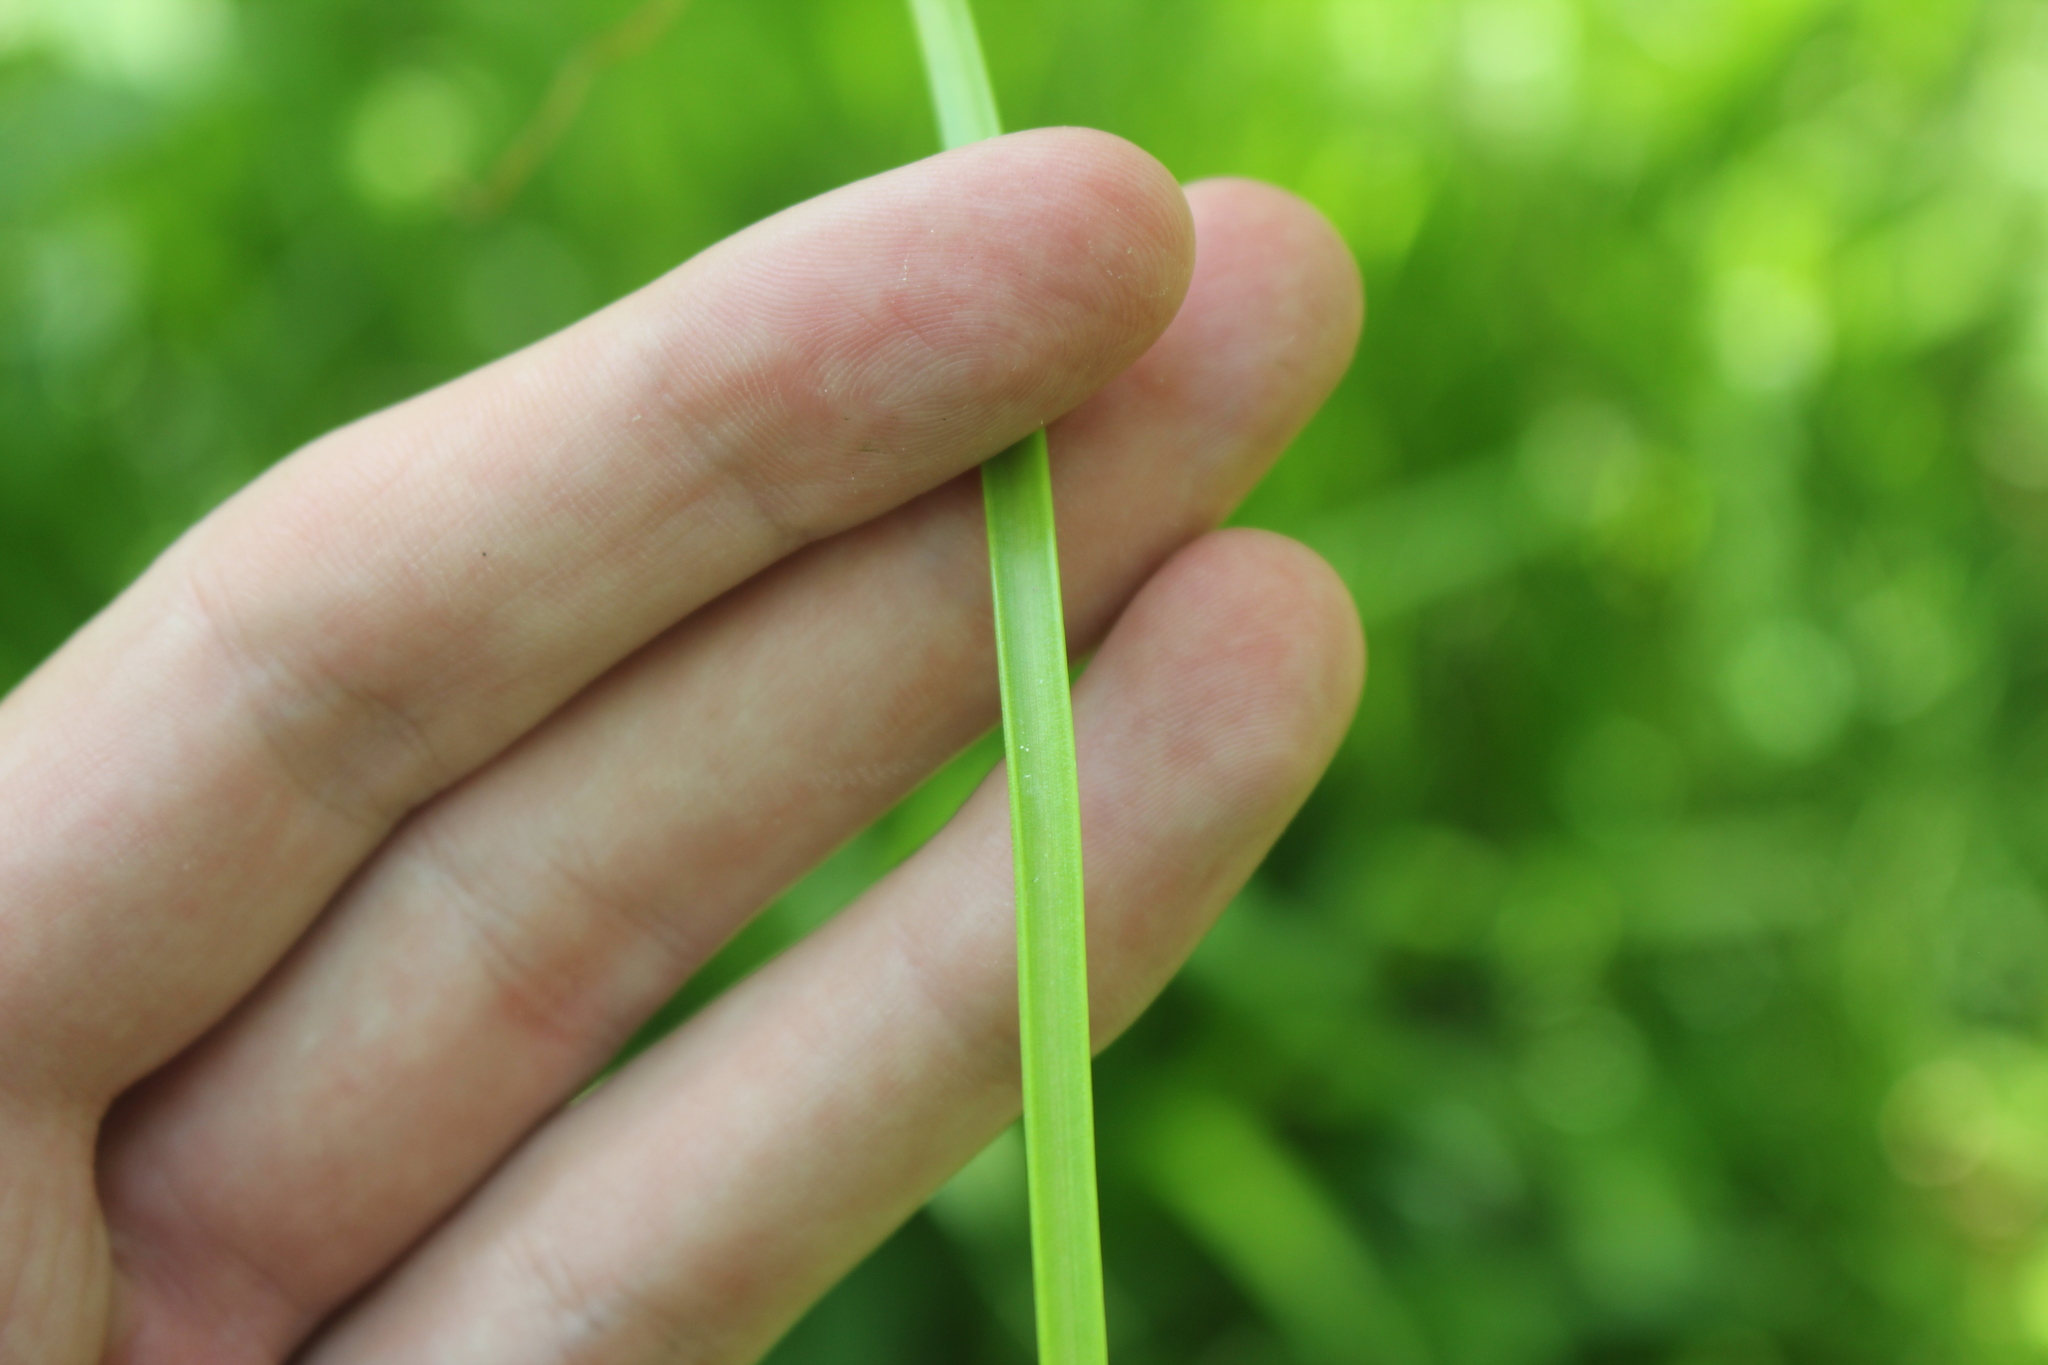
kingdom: Plantae
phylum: Tracheophyta
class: Liliopsida
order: Asparagales
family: Amaryllidaceae
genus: Allium
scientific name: Allium canadense
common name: Meadow garlic
